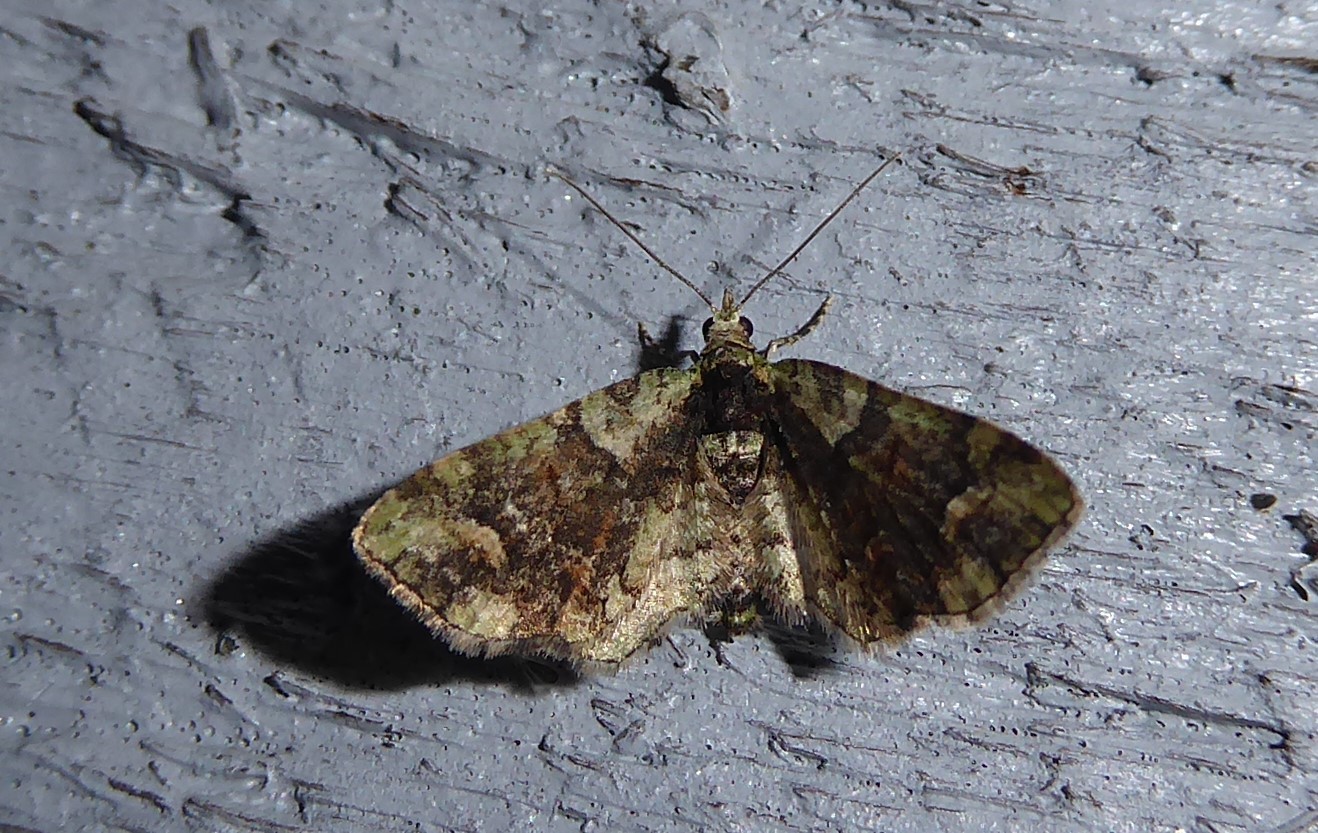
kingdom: Animalia
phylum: Arthropoda
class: Insecta
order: Lepidoptera
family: Geometridae
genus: Idaea
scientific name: Idaea mutanda
